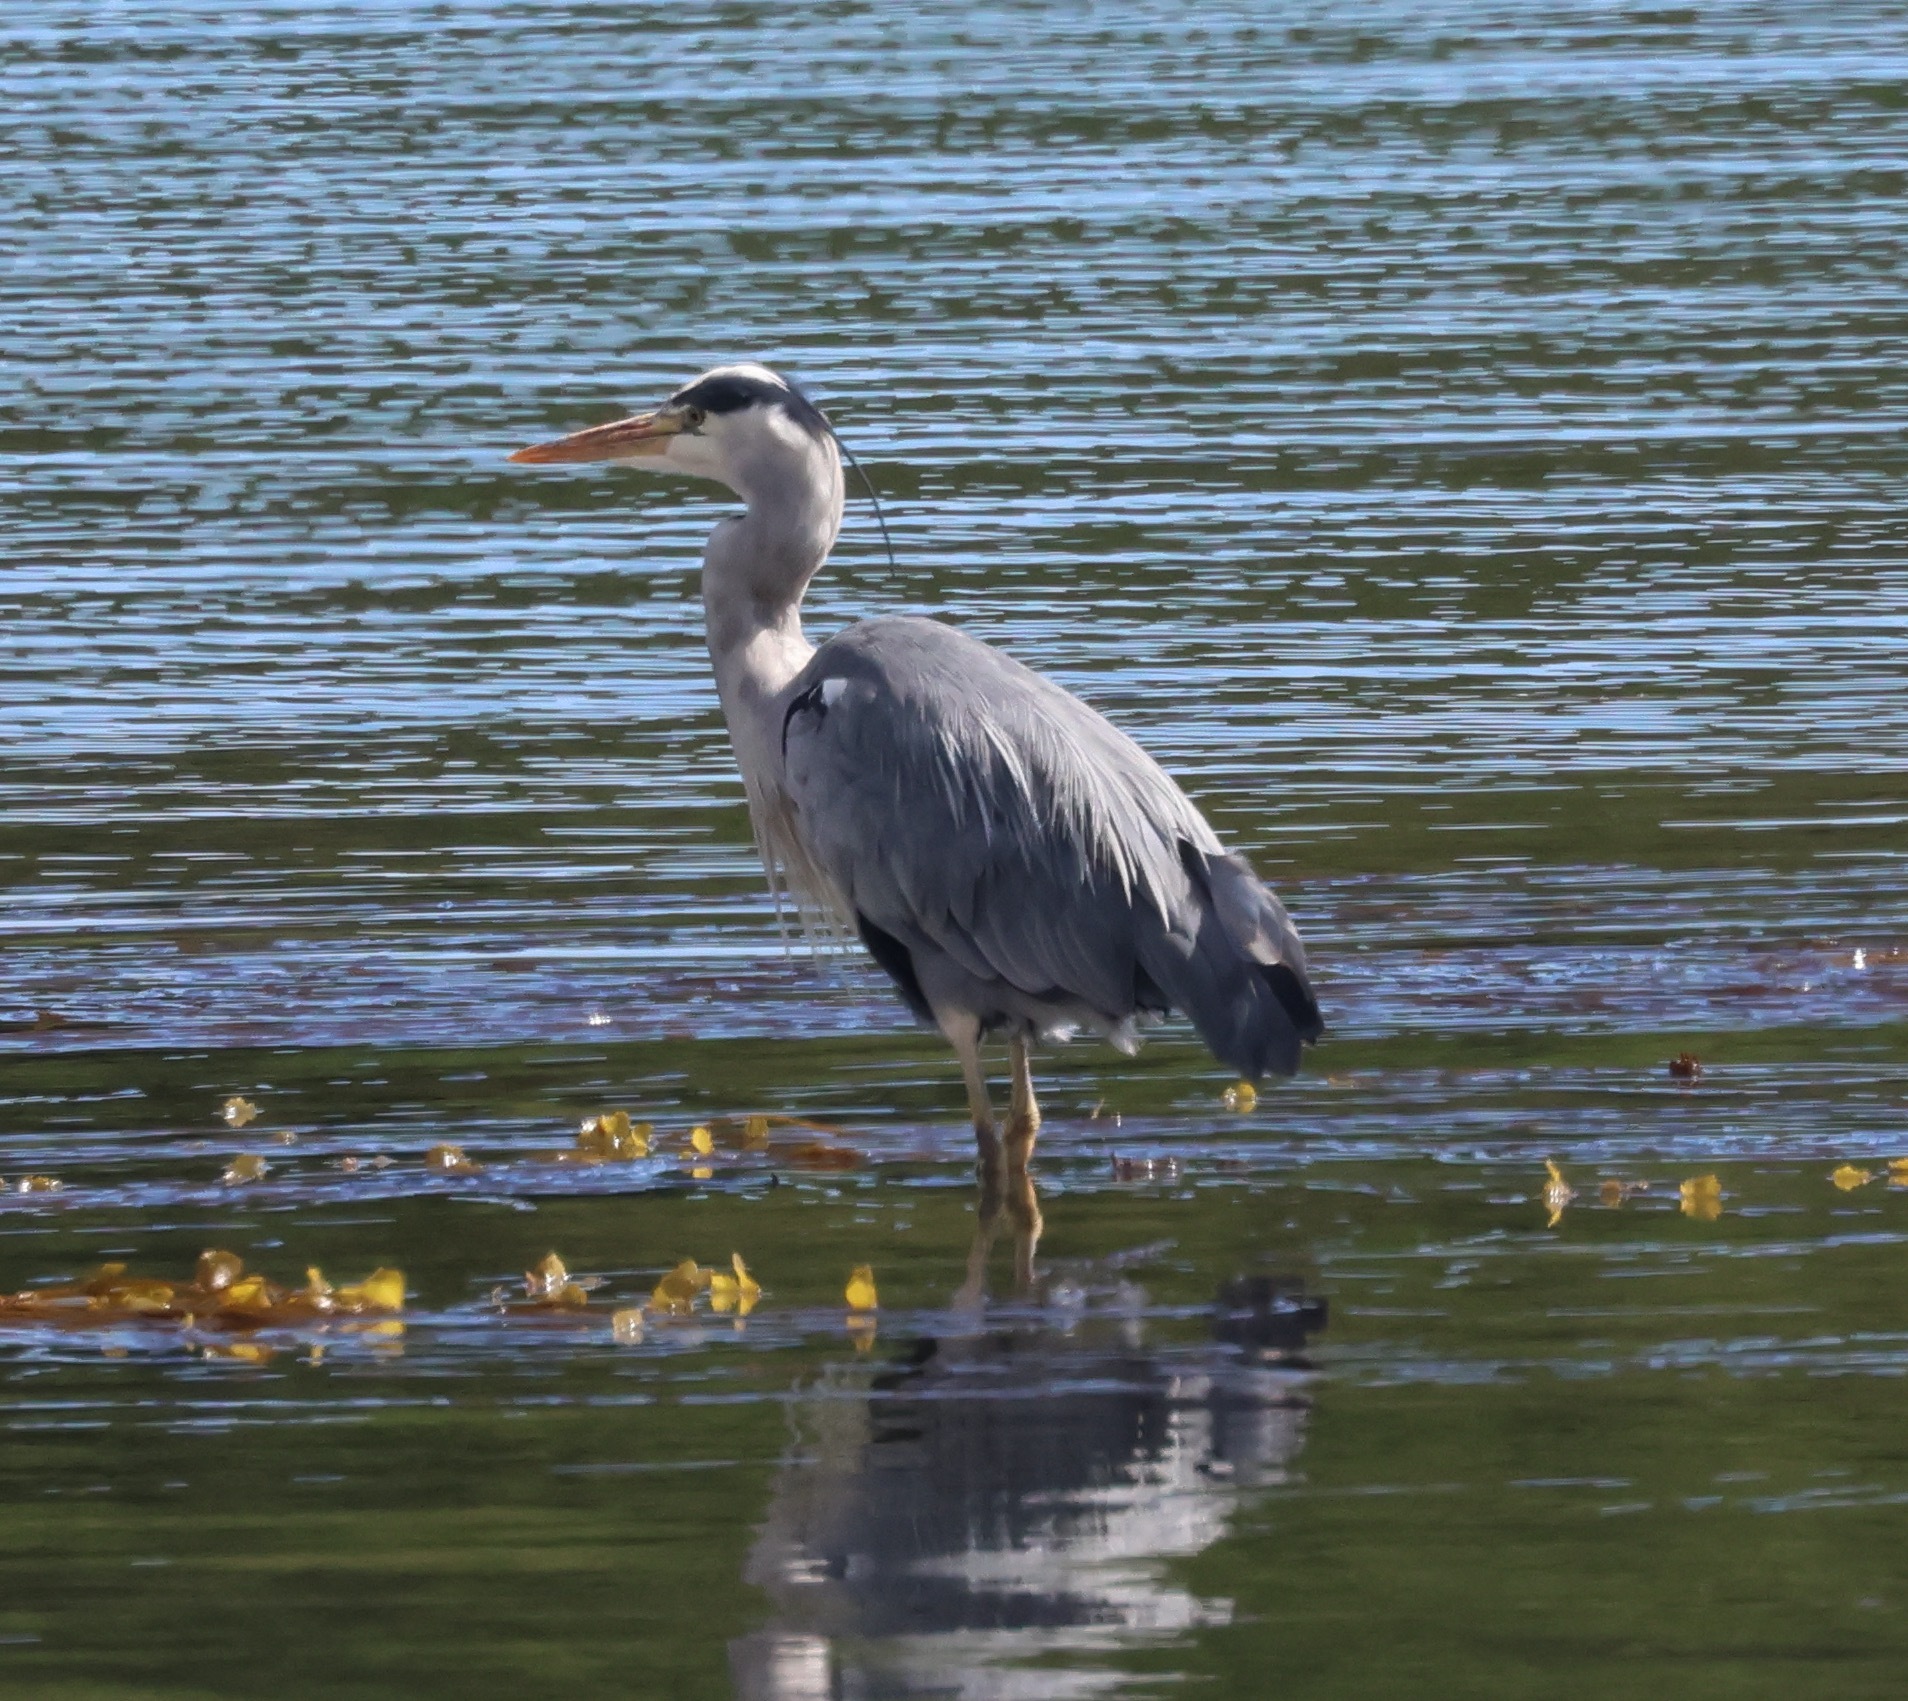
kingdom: Animalia
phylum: Chordata
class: Aves
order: Pelecaniformes
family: Ardeidae
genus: Ardea
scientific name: Ardea cinerea
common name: Grey heron
